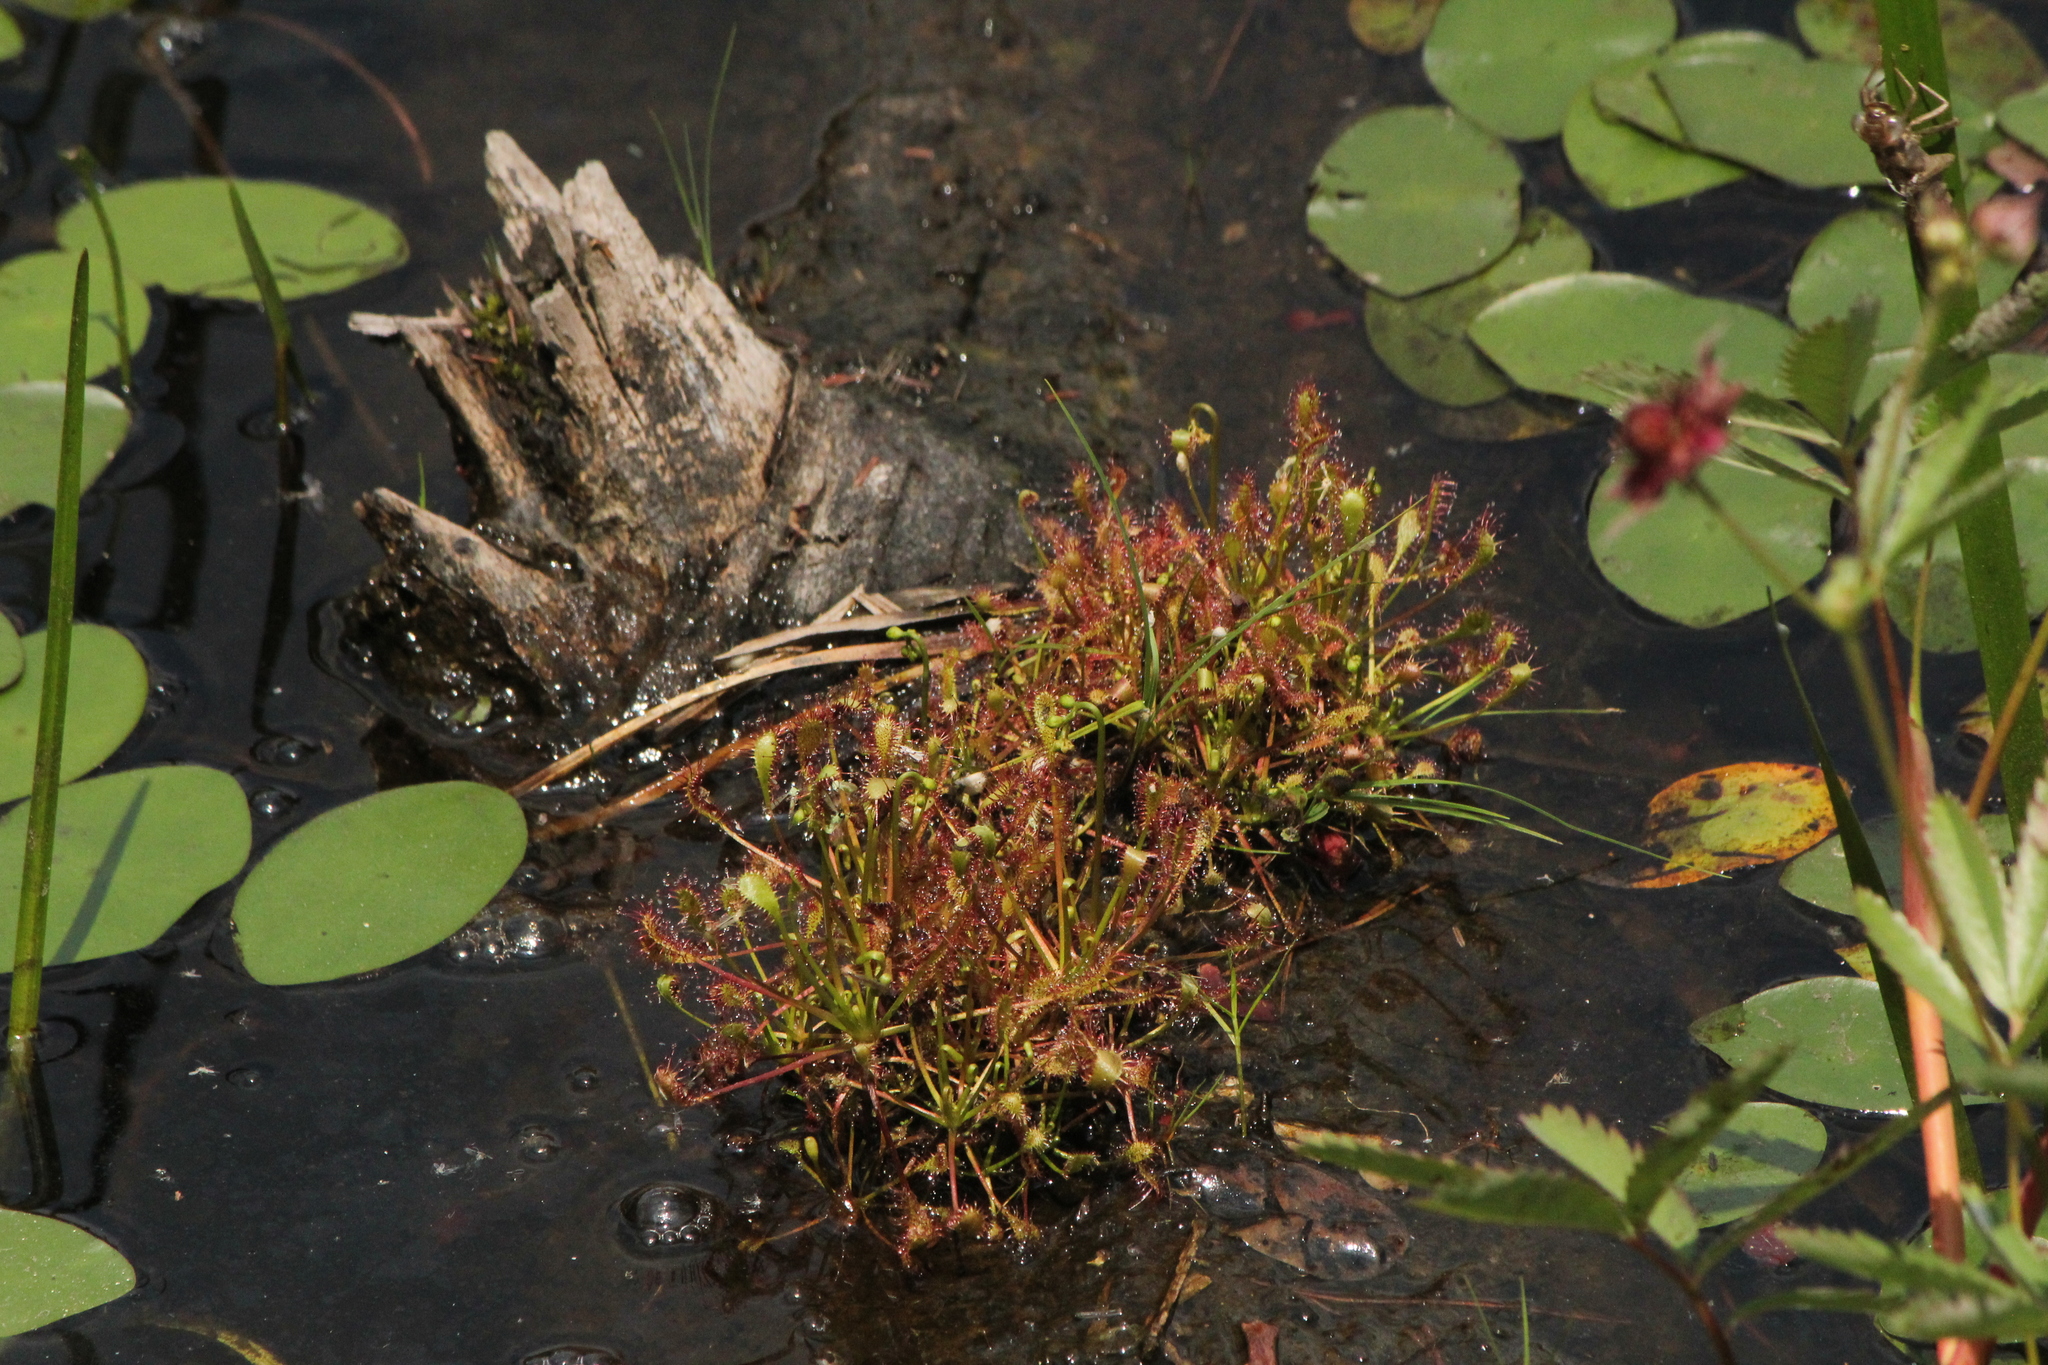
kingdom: Plantae
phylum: Tracheophyta
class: Magnoliopsida
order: Caryophyllales
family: Droseraceae
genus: Drosera
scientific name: Drosera intermedia
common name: Oblong-leaved sundew
